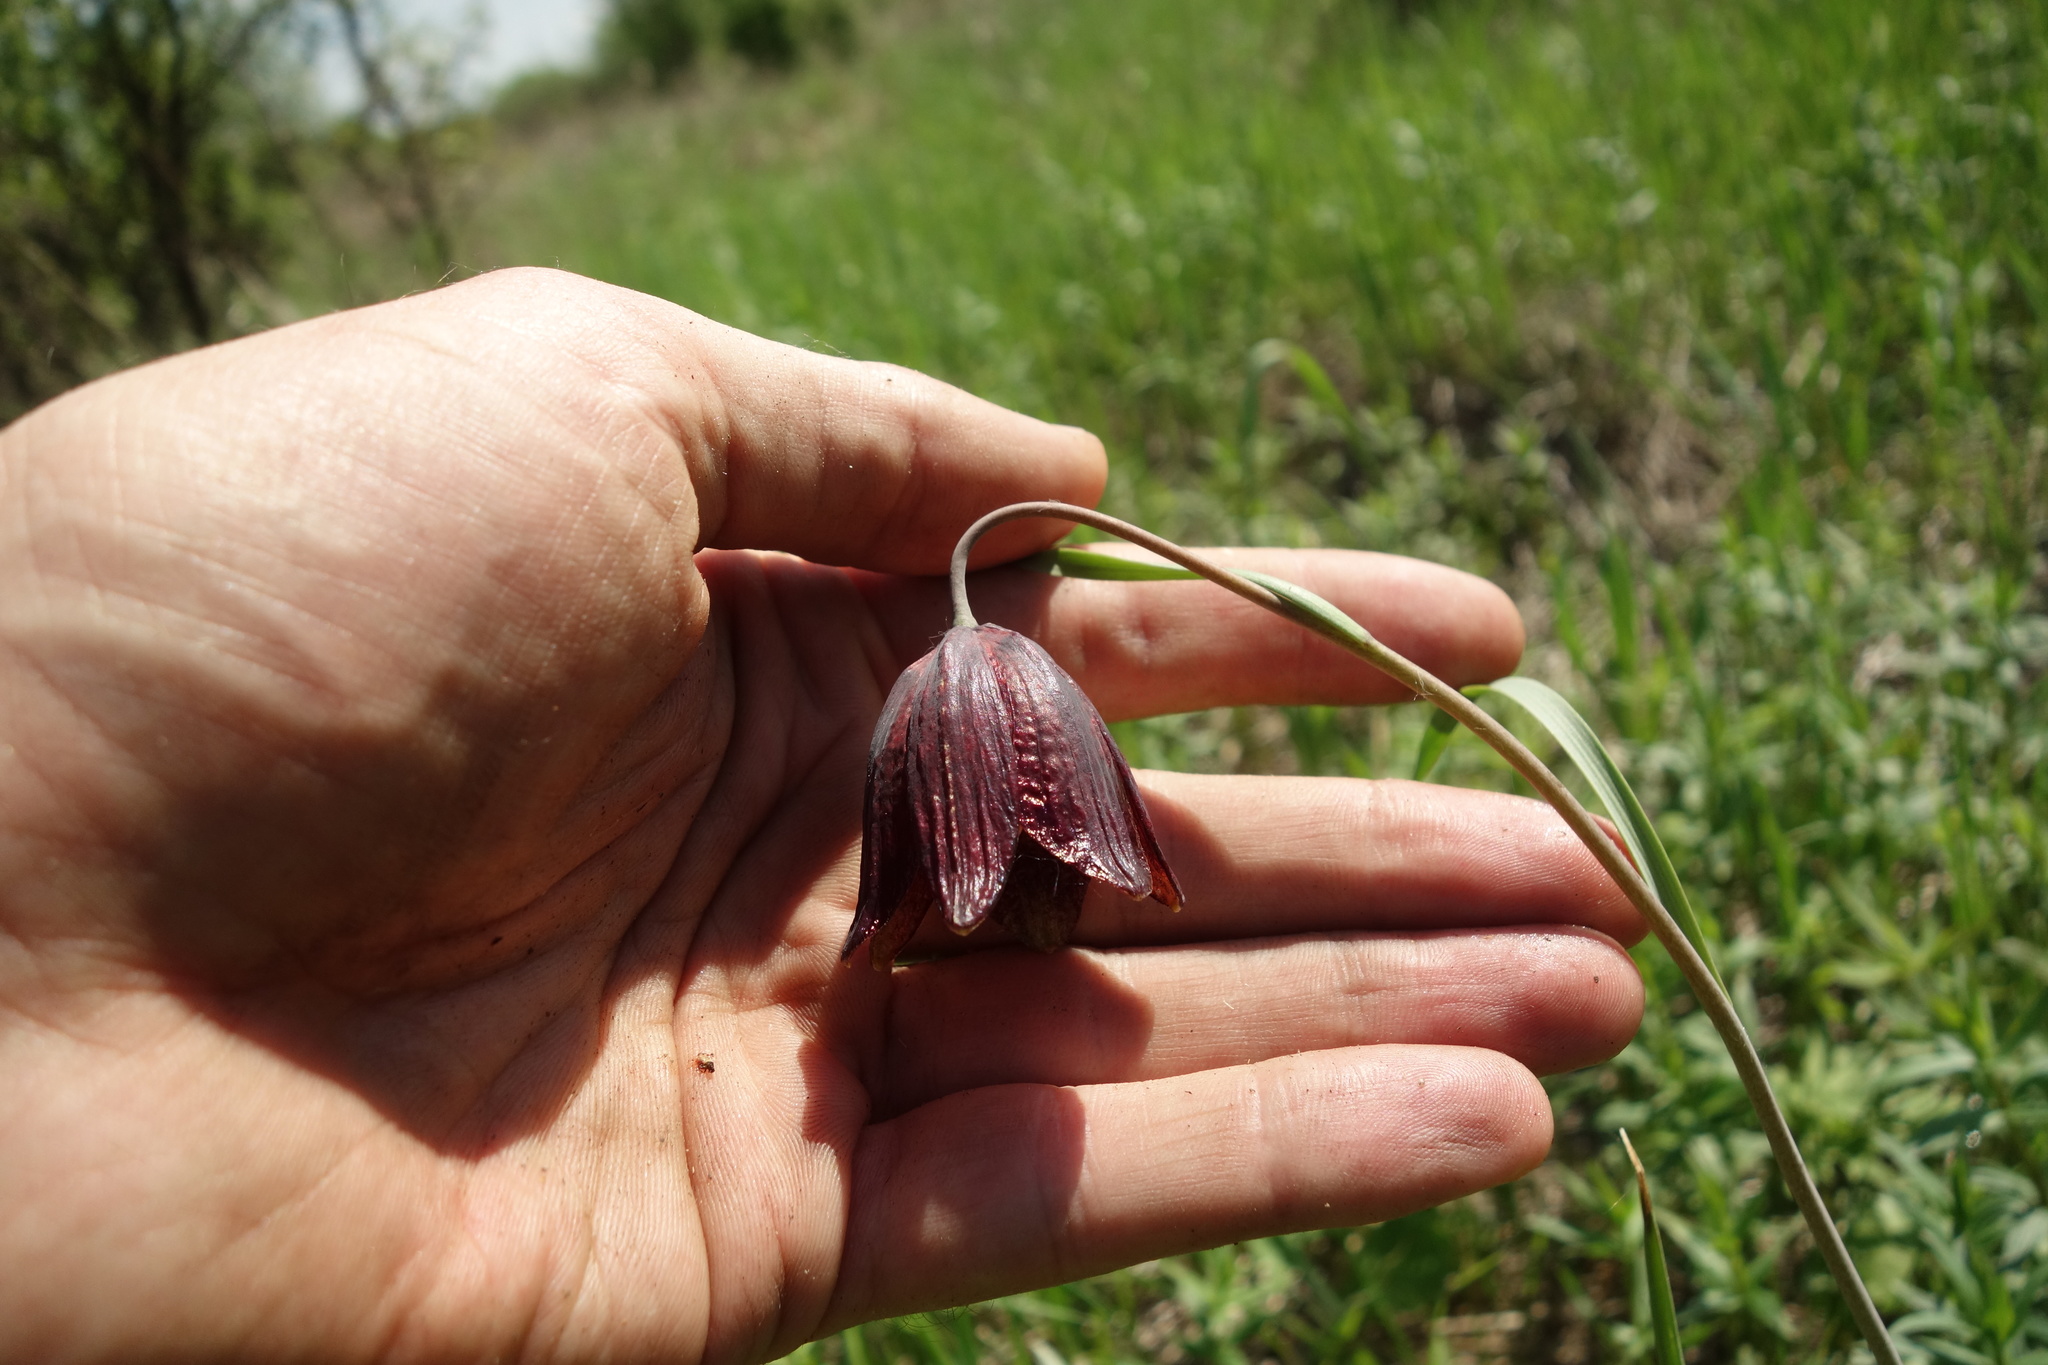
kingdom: Plantae
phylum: Tracheophyta
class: Liliopsida
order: Liliales
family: Liliaceae
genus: Fritillaria
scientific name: Fritillaria meleagroides
